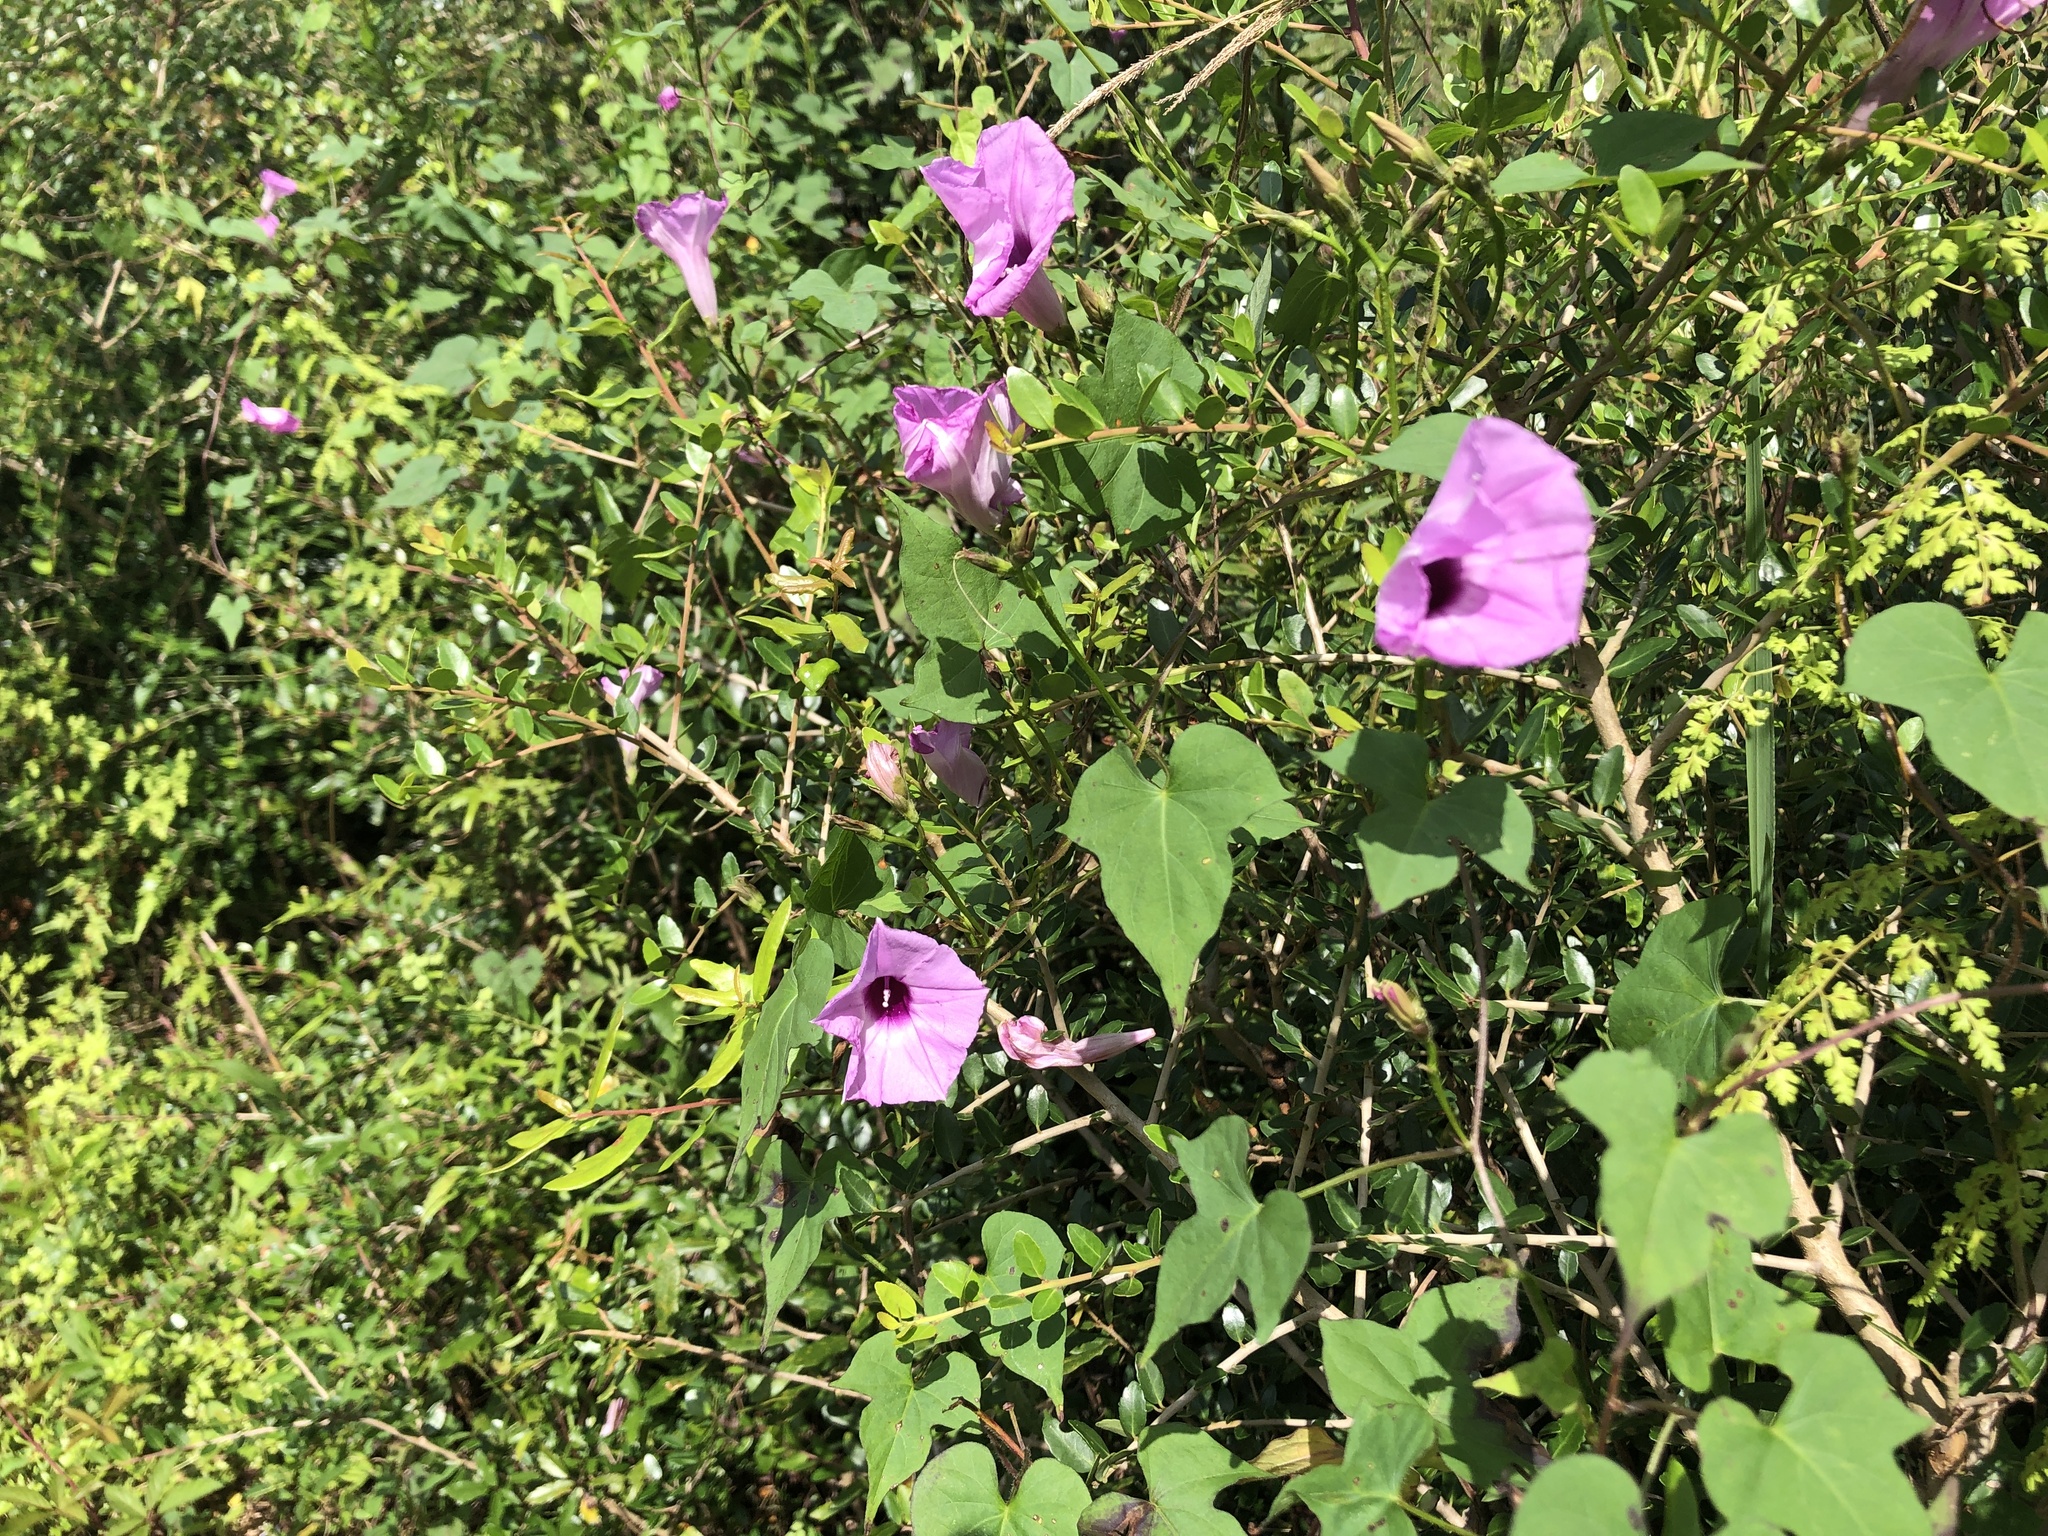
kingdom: Plantae
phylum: Tracheophyta
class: Magnoliopsida
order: Solanales
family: Convolvulaceae
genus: Ipomoea
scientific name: Ipomoea cordatotriloba
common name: Cotton morning glory
